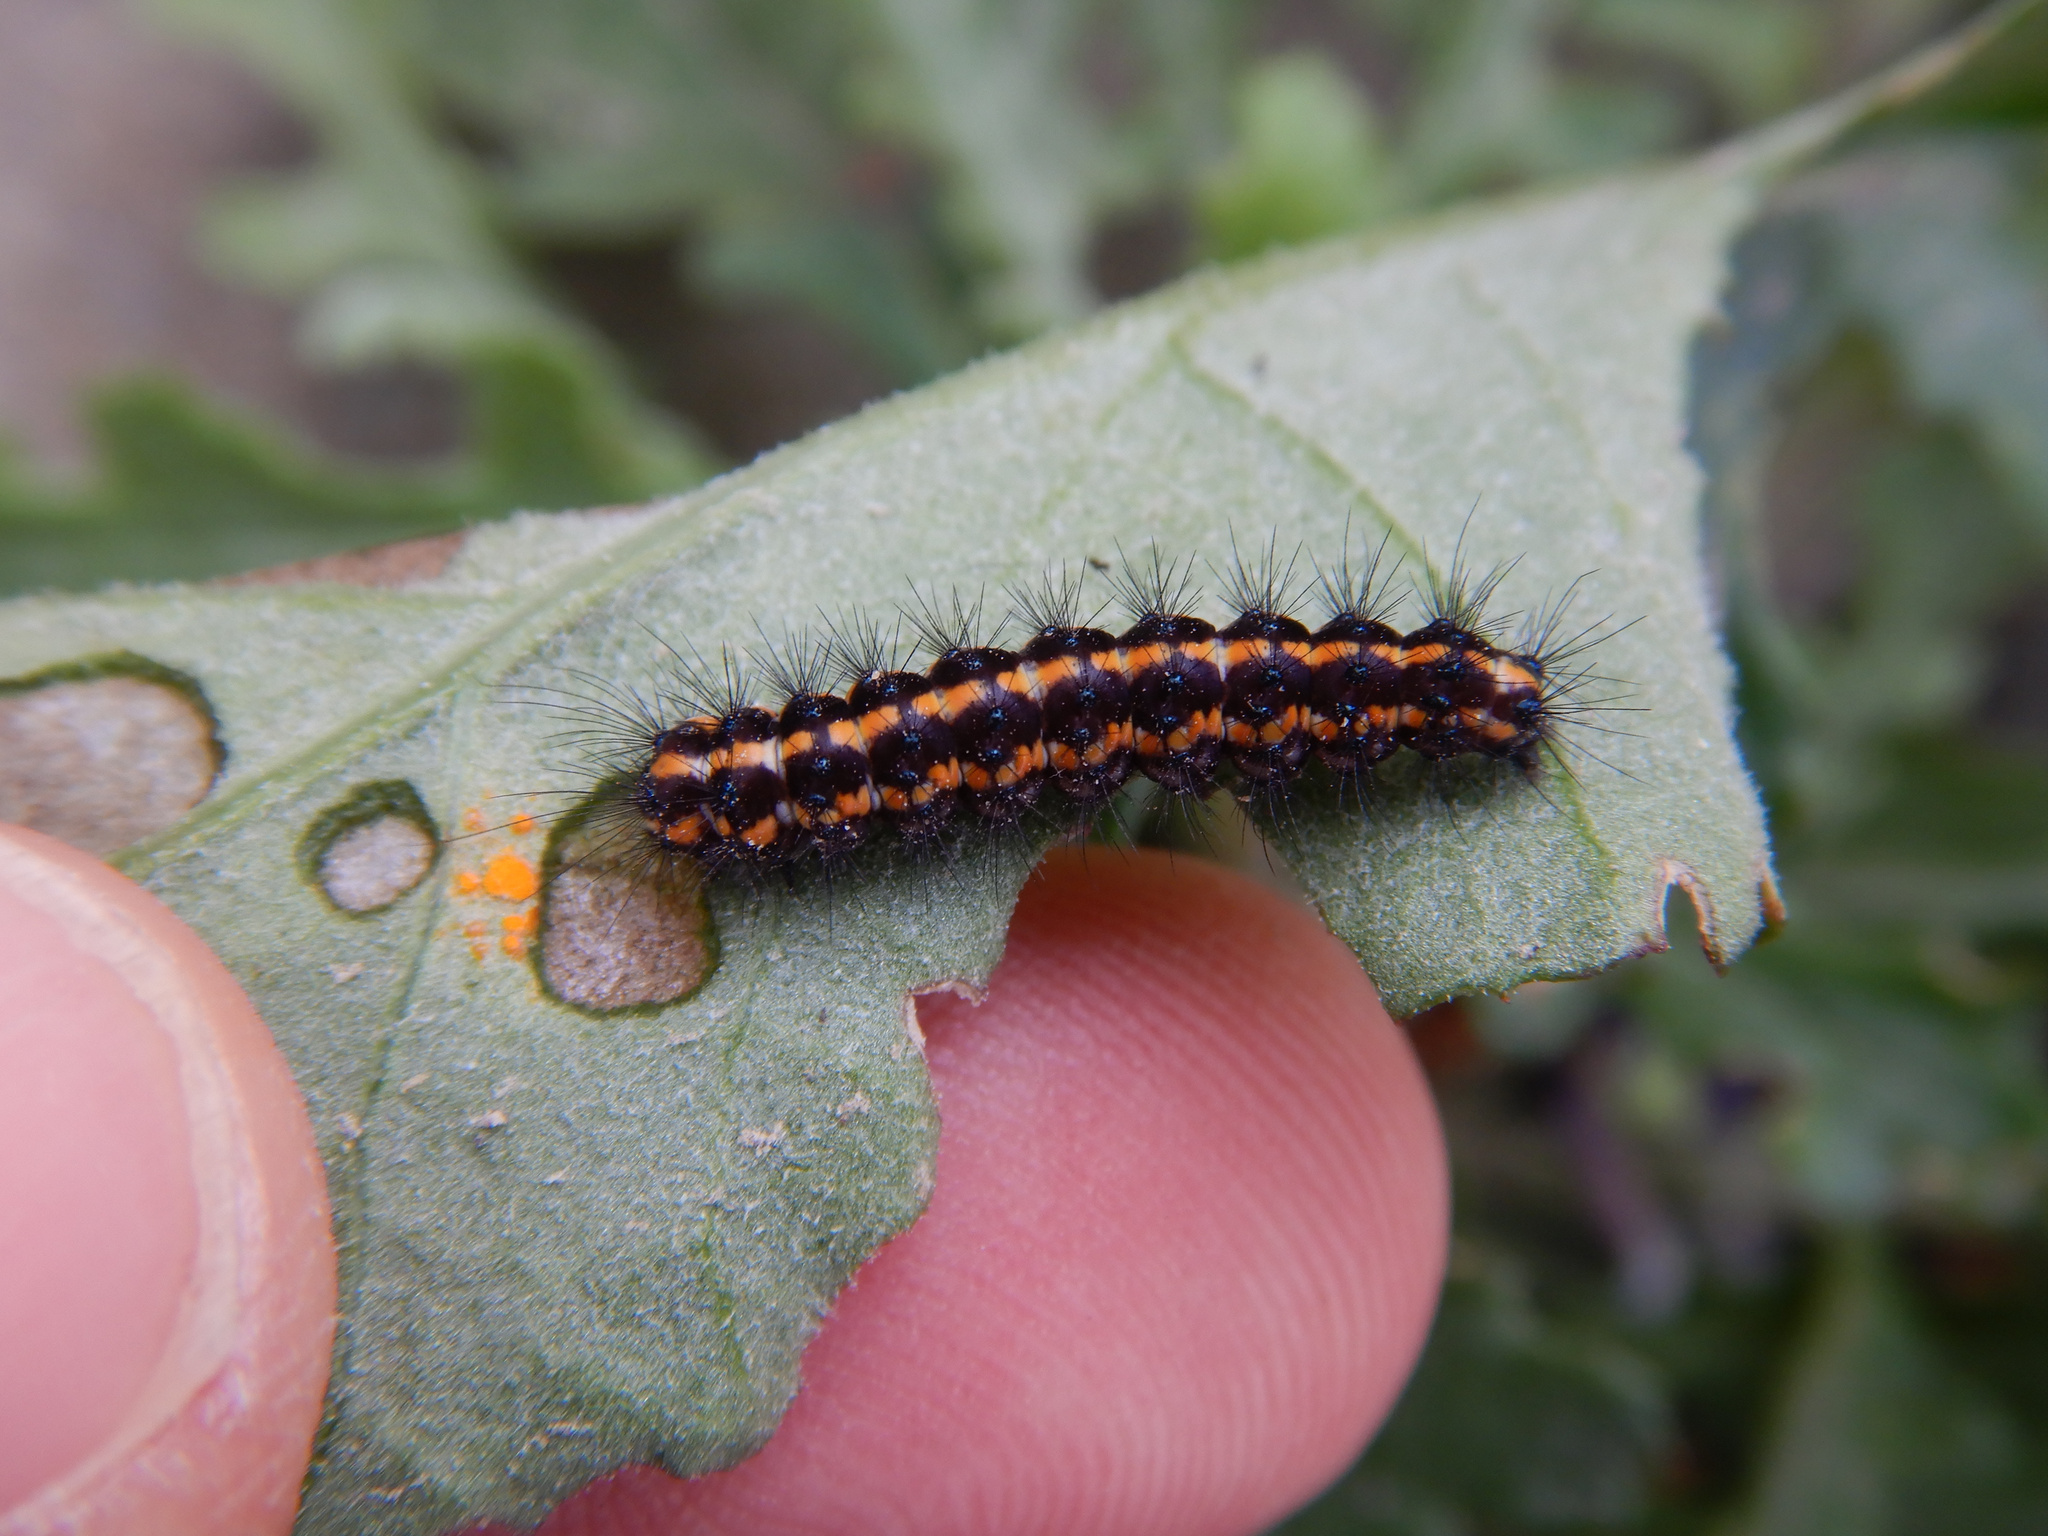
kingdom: Animalia
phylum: Arthropoda
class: Insecta
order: Lepidoptera
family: Erebidae
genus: Nyctemera
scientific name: Nyctemera annulatum
